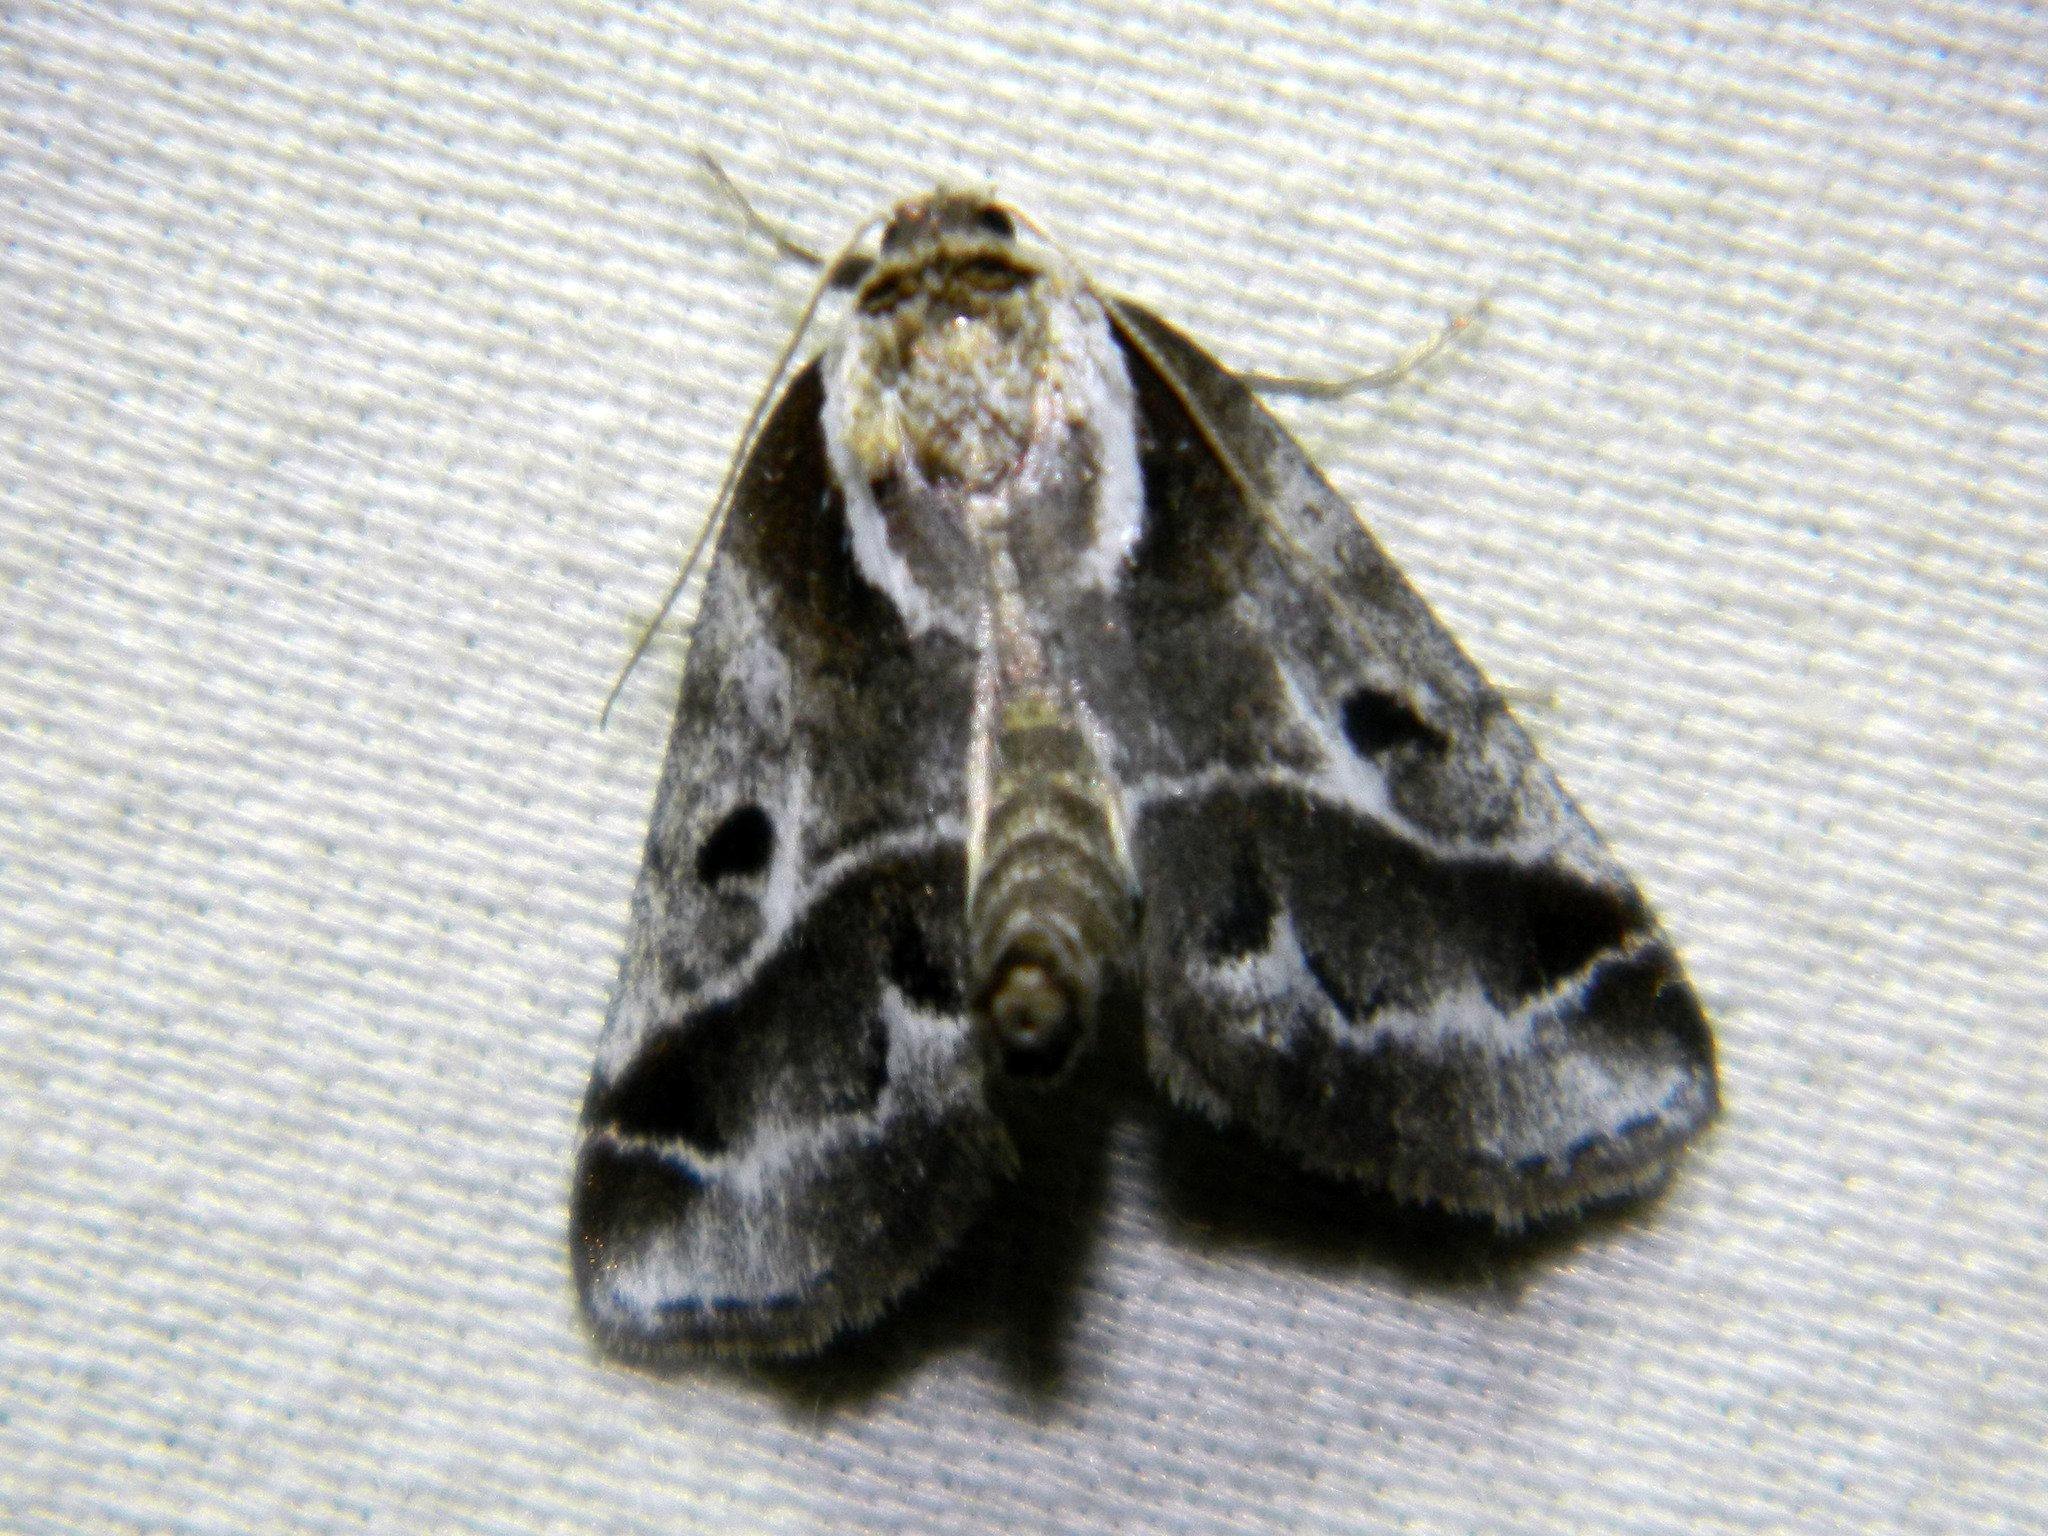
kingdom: Animalia
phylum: Arthropoda
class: Insecta
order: Lepidoptera
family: Nolidae
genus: Baileya
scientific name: Baileya doubledayi
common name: Doubleday's baileya moth
